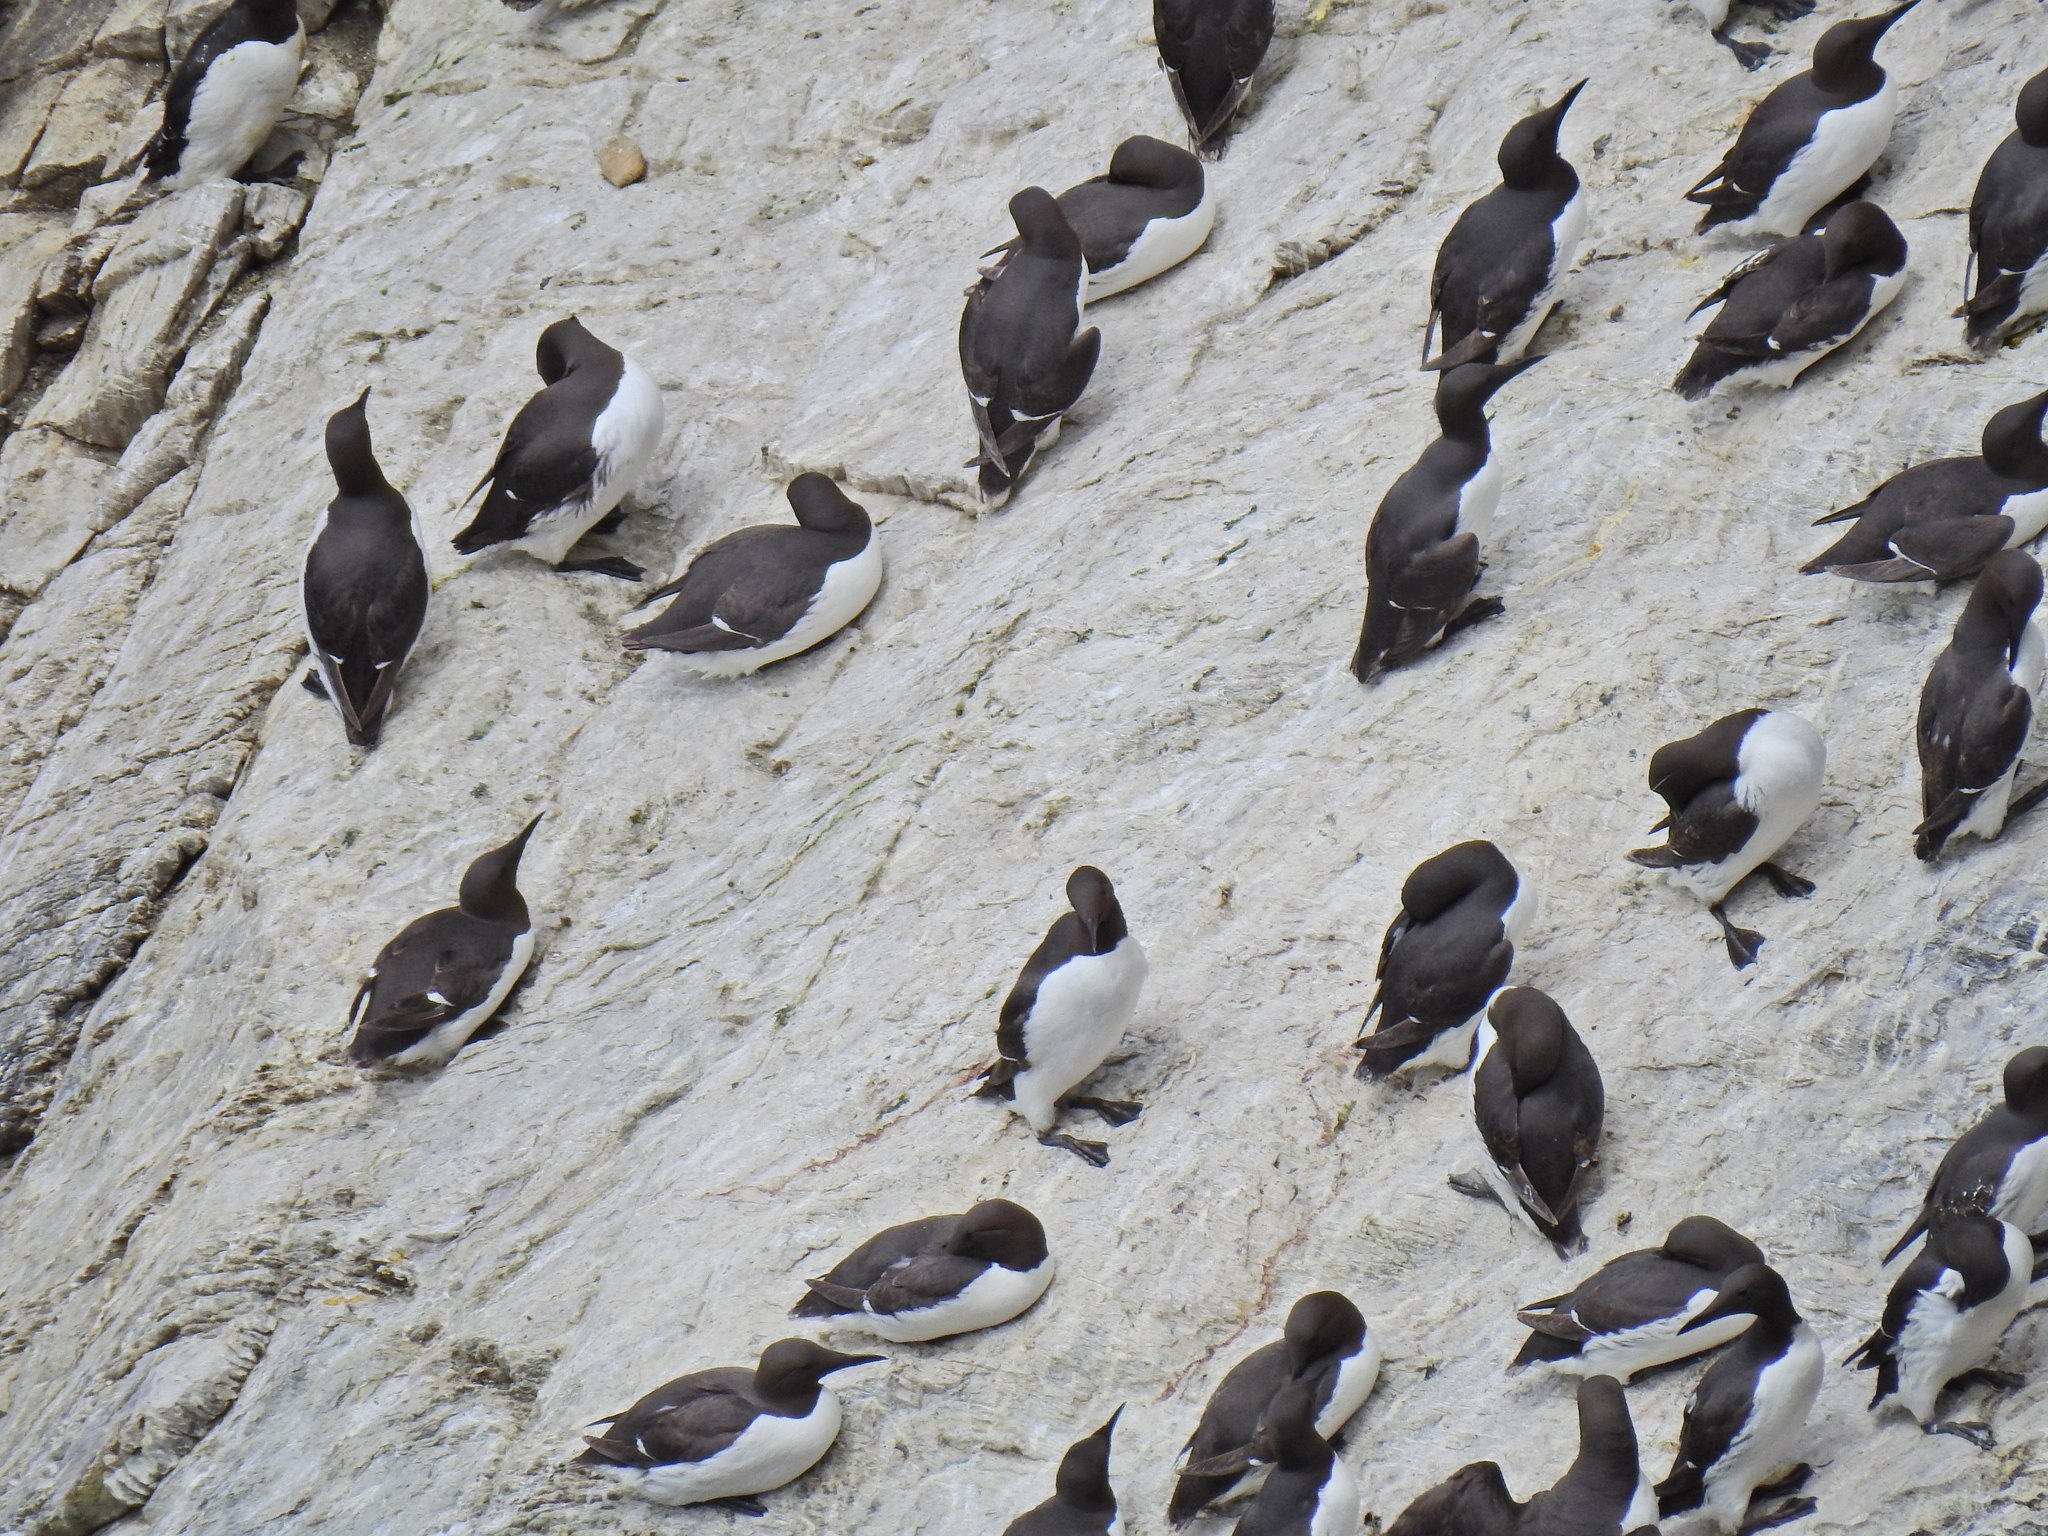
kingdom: Animalia
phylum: Chordata
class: Aves
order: Charadriiformes
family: Alcidae
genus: Uria
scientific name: Uria aalge
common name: Common murre
